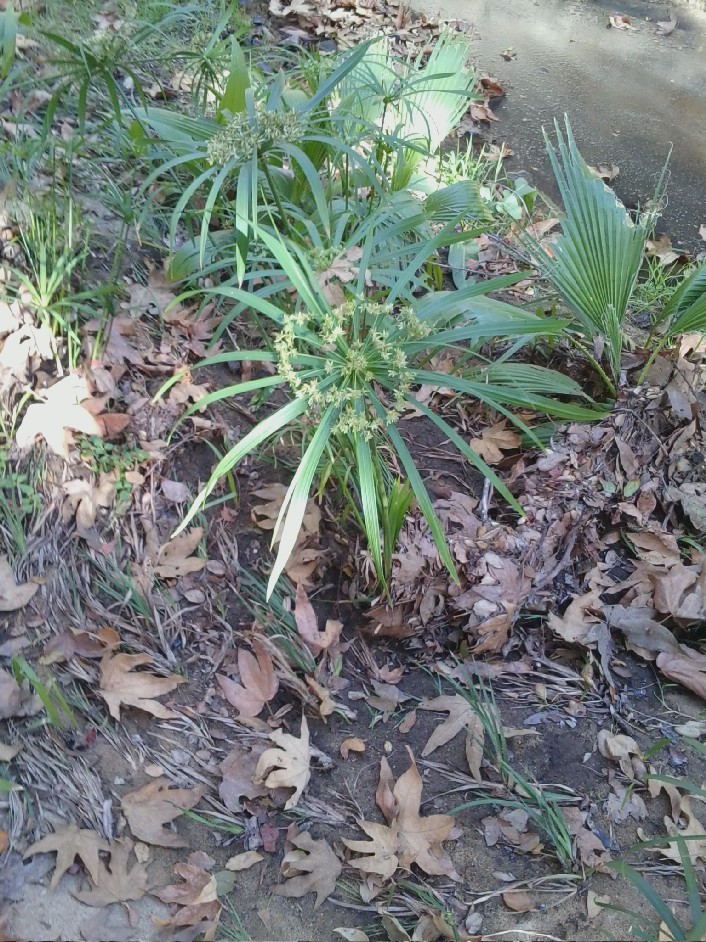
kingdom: Plantae
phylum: Tracheophyta
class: Liliopsida
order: Poales
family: Cyperaceae
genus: Cyperus
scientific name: Cyperus alternifolius
